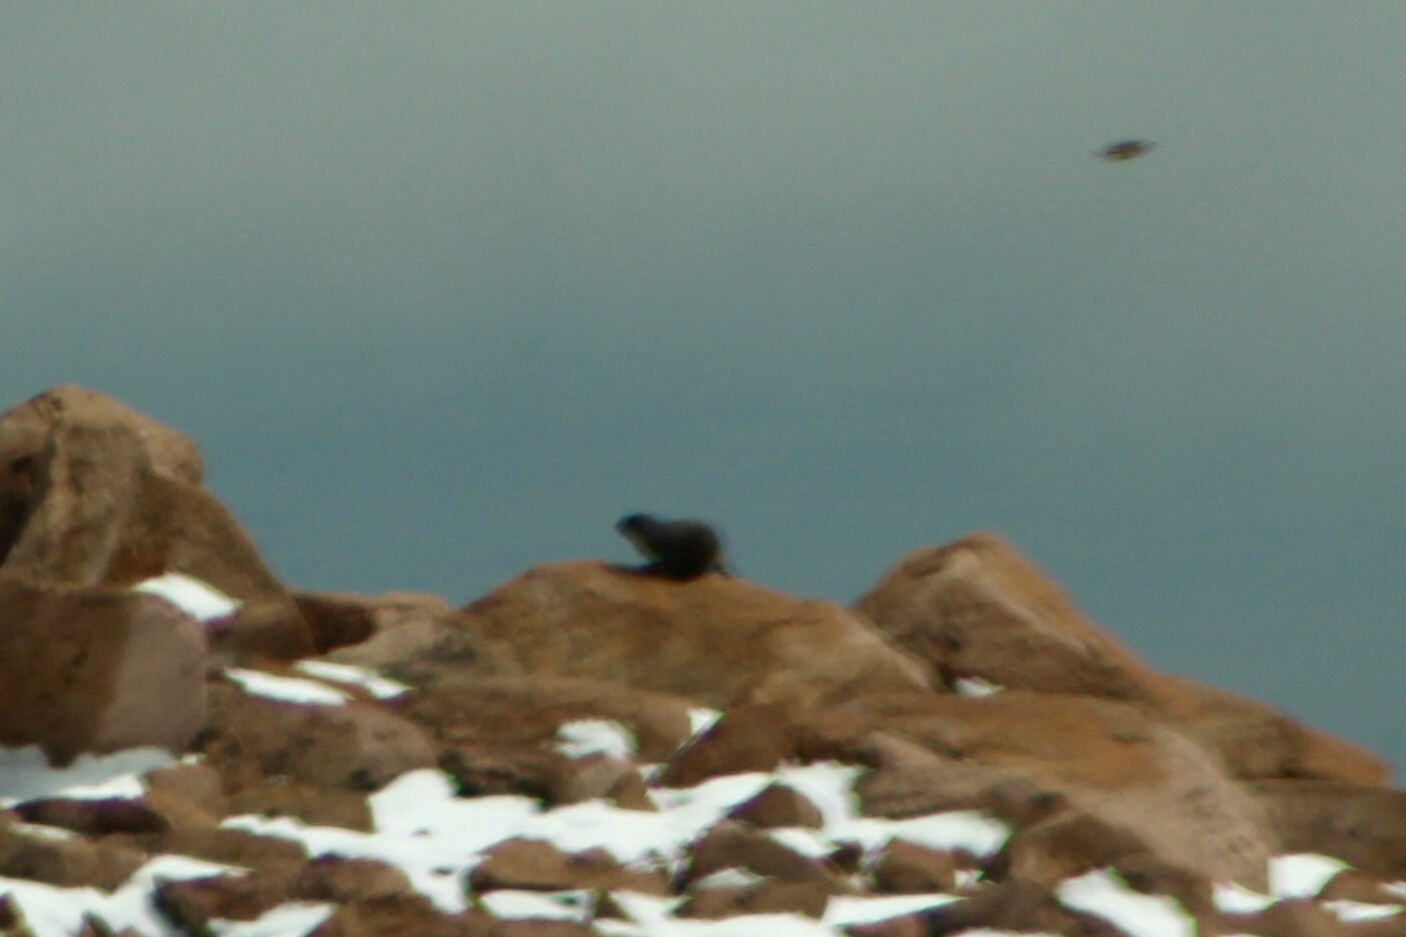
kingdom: Animalia
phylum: Chordata
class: Mammalia
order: Rodentia
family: Sciuridae
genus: Marmota
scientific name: Marmota flaviventris
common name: Yellow-bellied marmot
